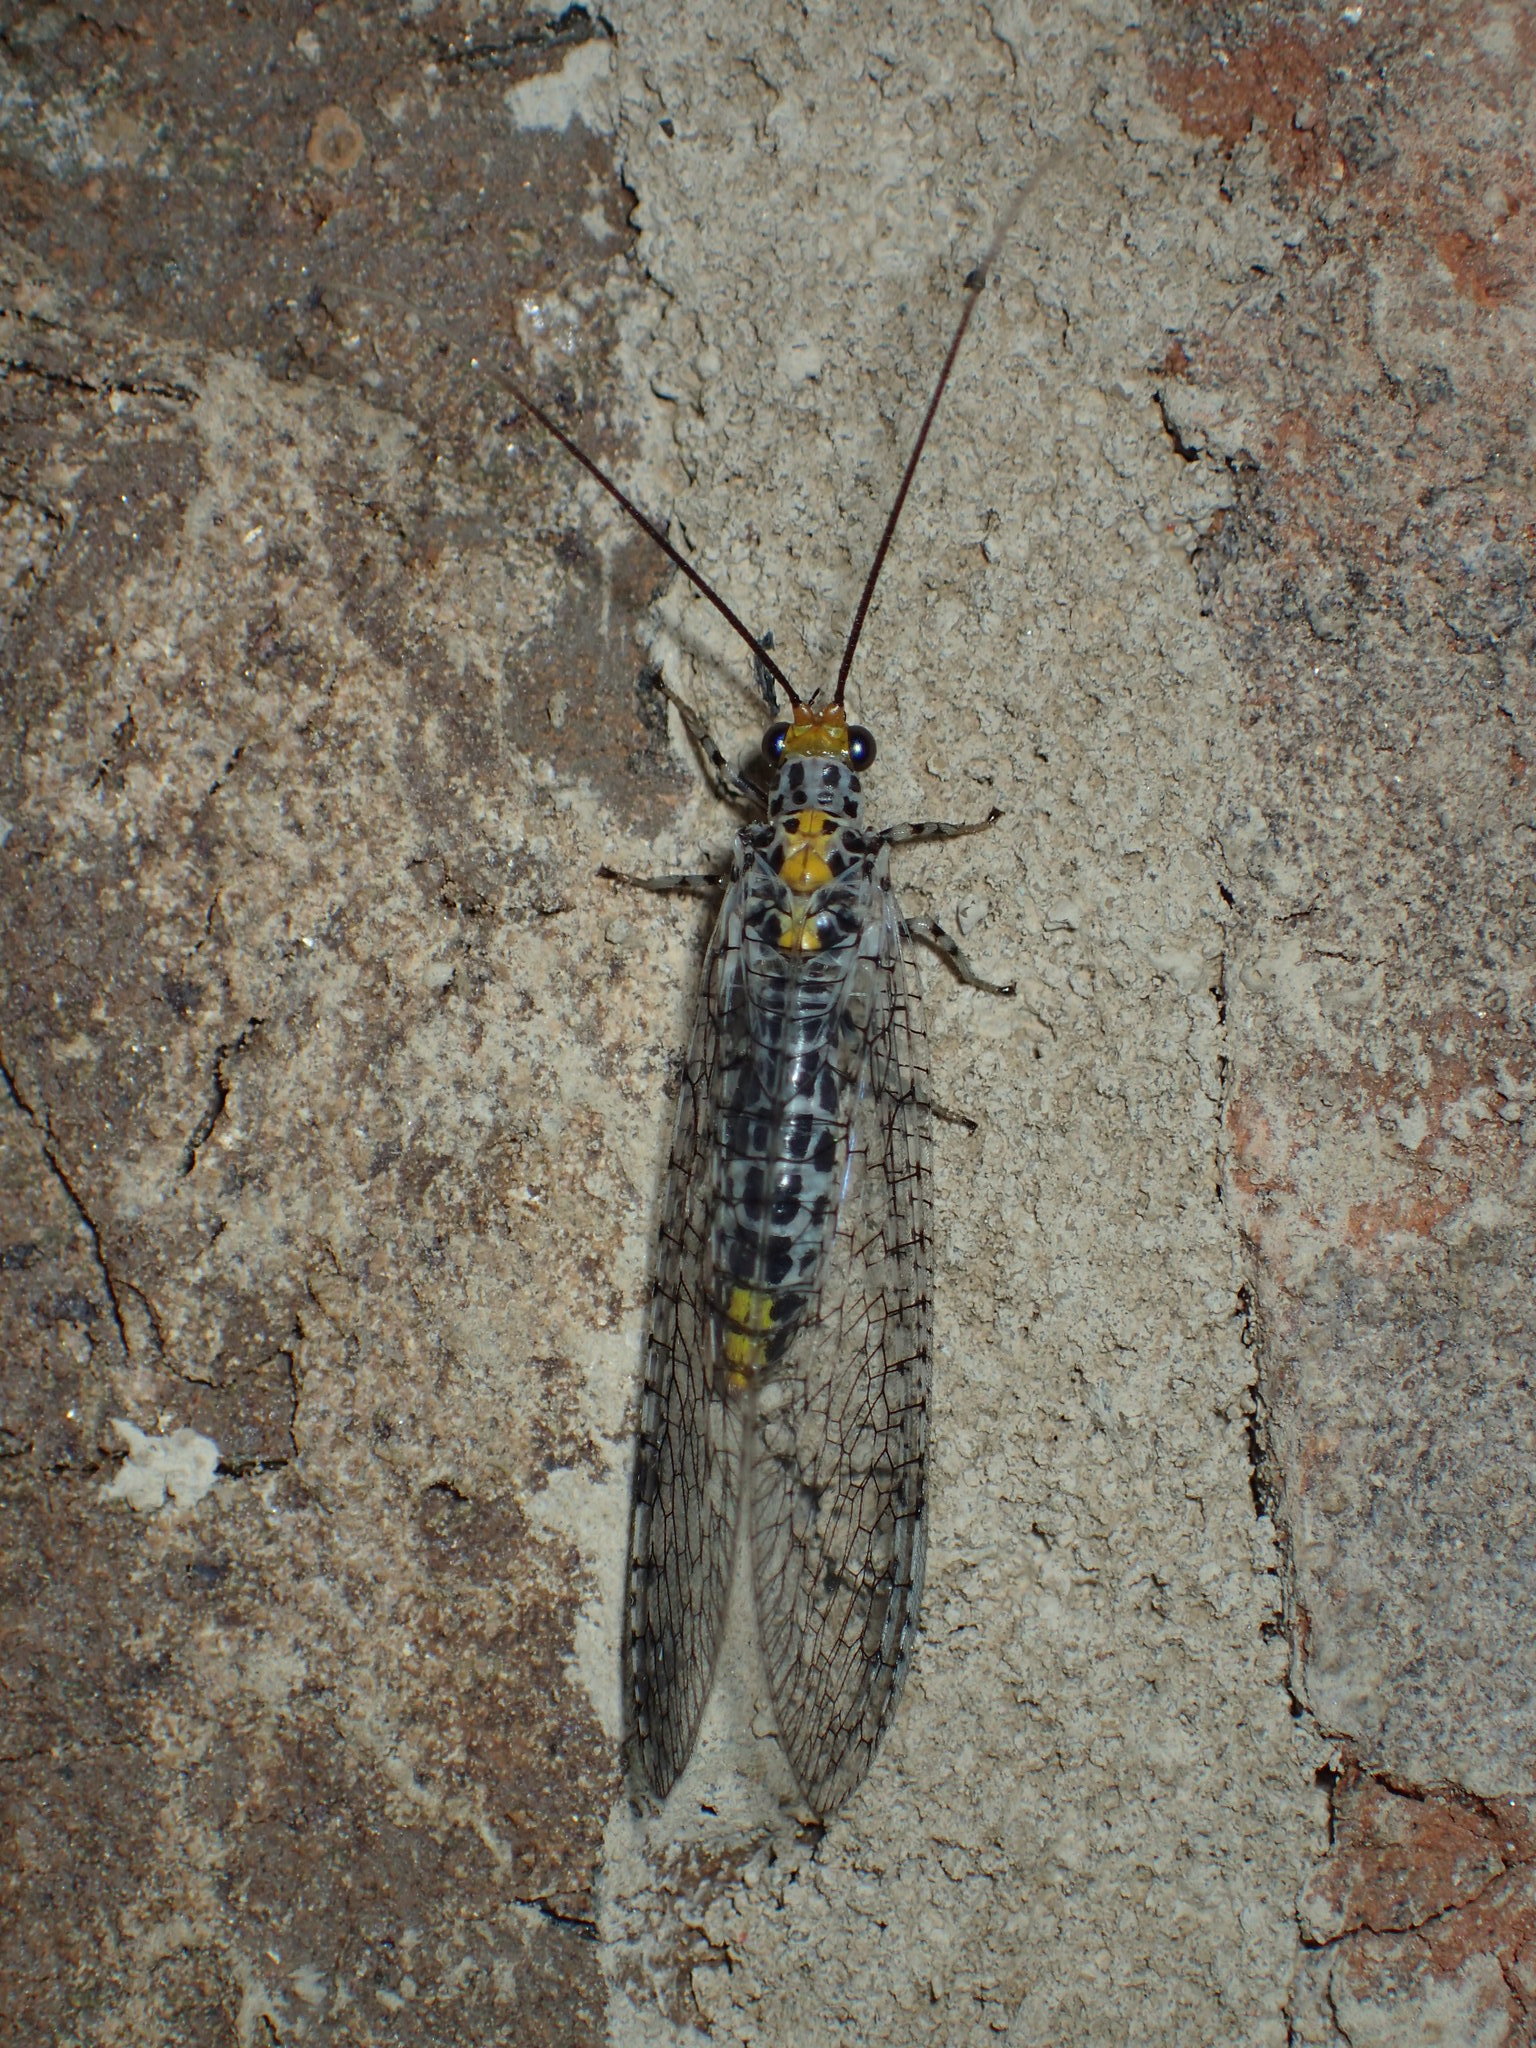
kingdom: Animalia
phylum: Arthropoda
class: Insecta
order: Neuroptera
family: Chrysopidae
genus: Abachrysa
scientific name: Abachrysa eureka
